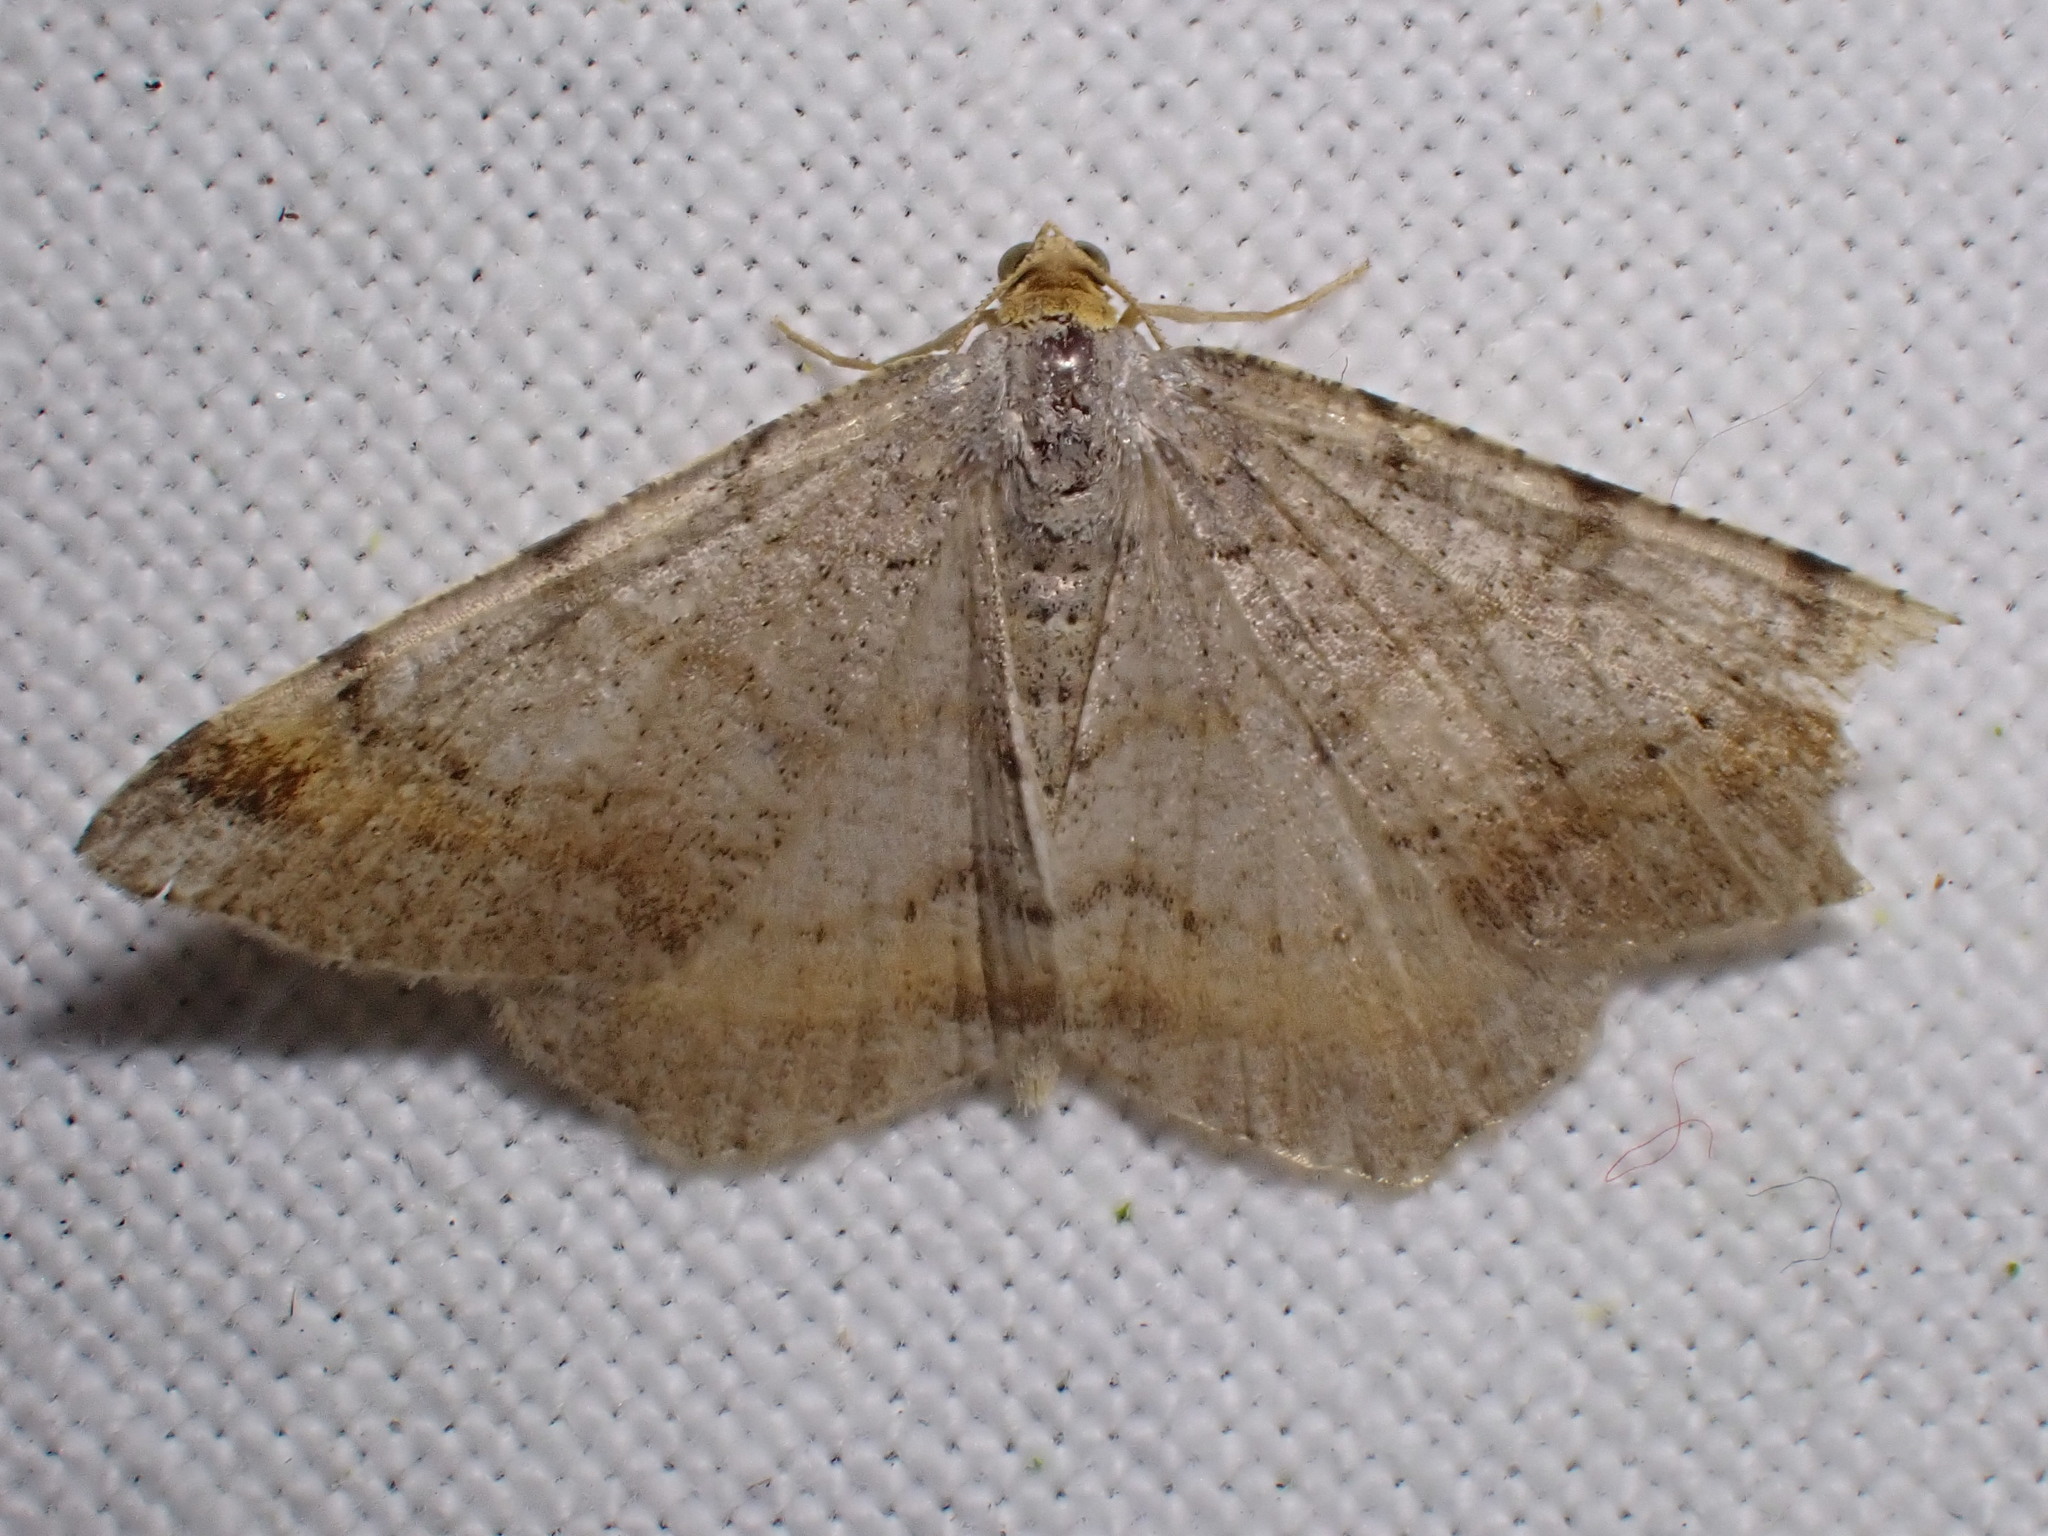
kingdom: Animalia
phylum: Arthropoda
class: Insecta
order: Lepidoptera
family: Geometridae
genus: Macaria
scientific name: Macaria liturata
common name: Tawny-barred angle
